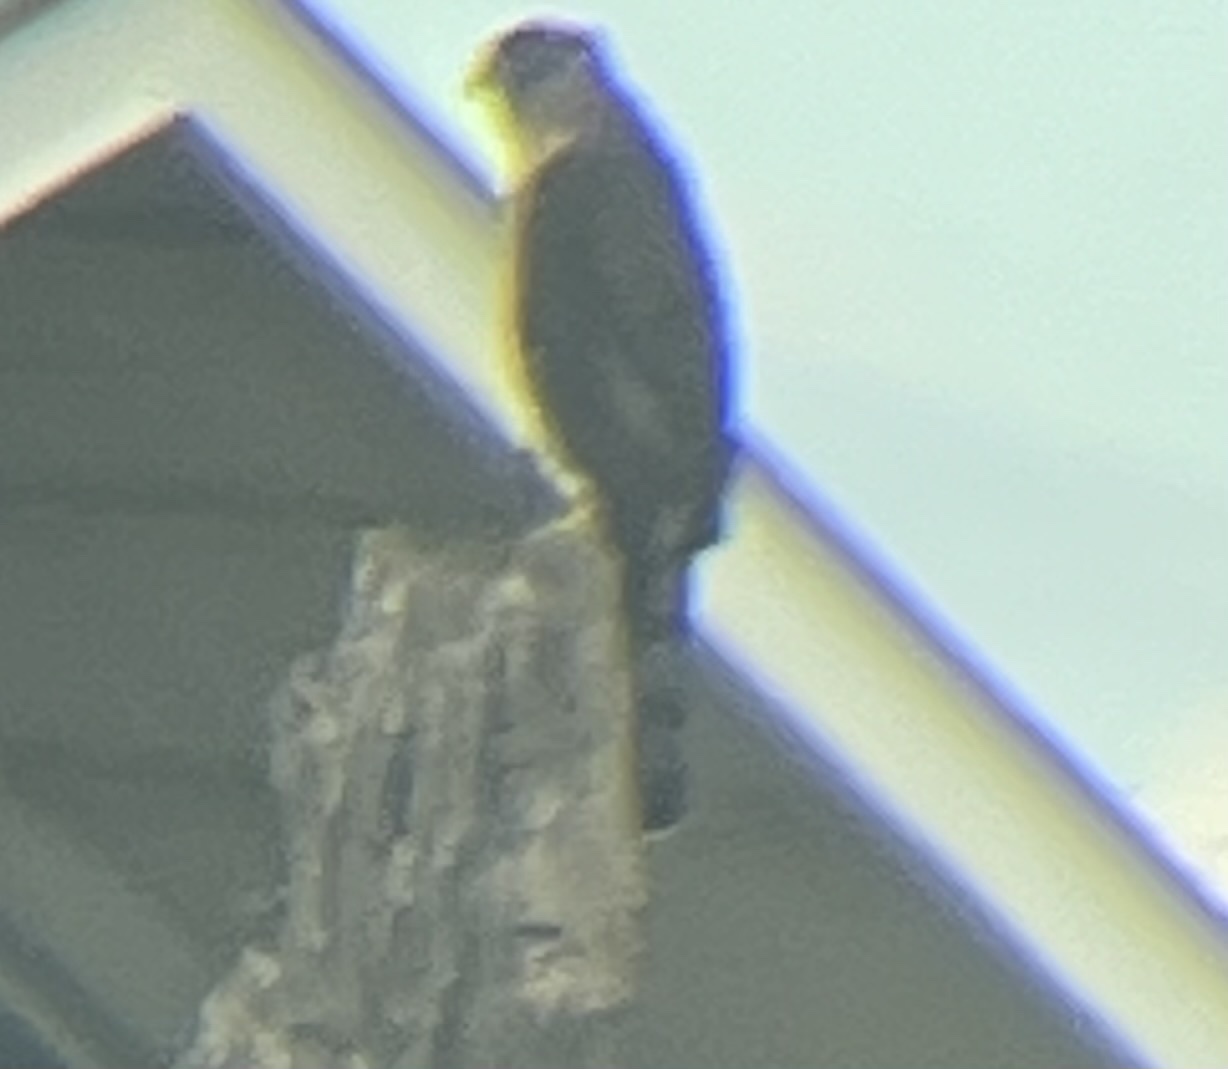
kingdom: Animalia
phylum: Chordata
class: Aves
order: Accipitriformes
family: Accipitridae
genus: Accipiter
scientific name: Accipiter cooperii
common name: Cooper's hawk
